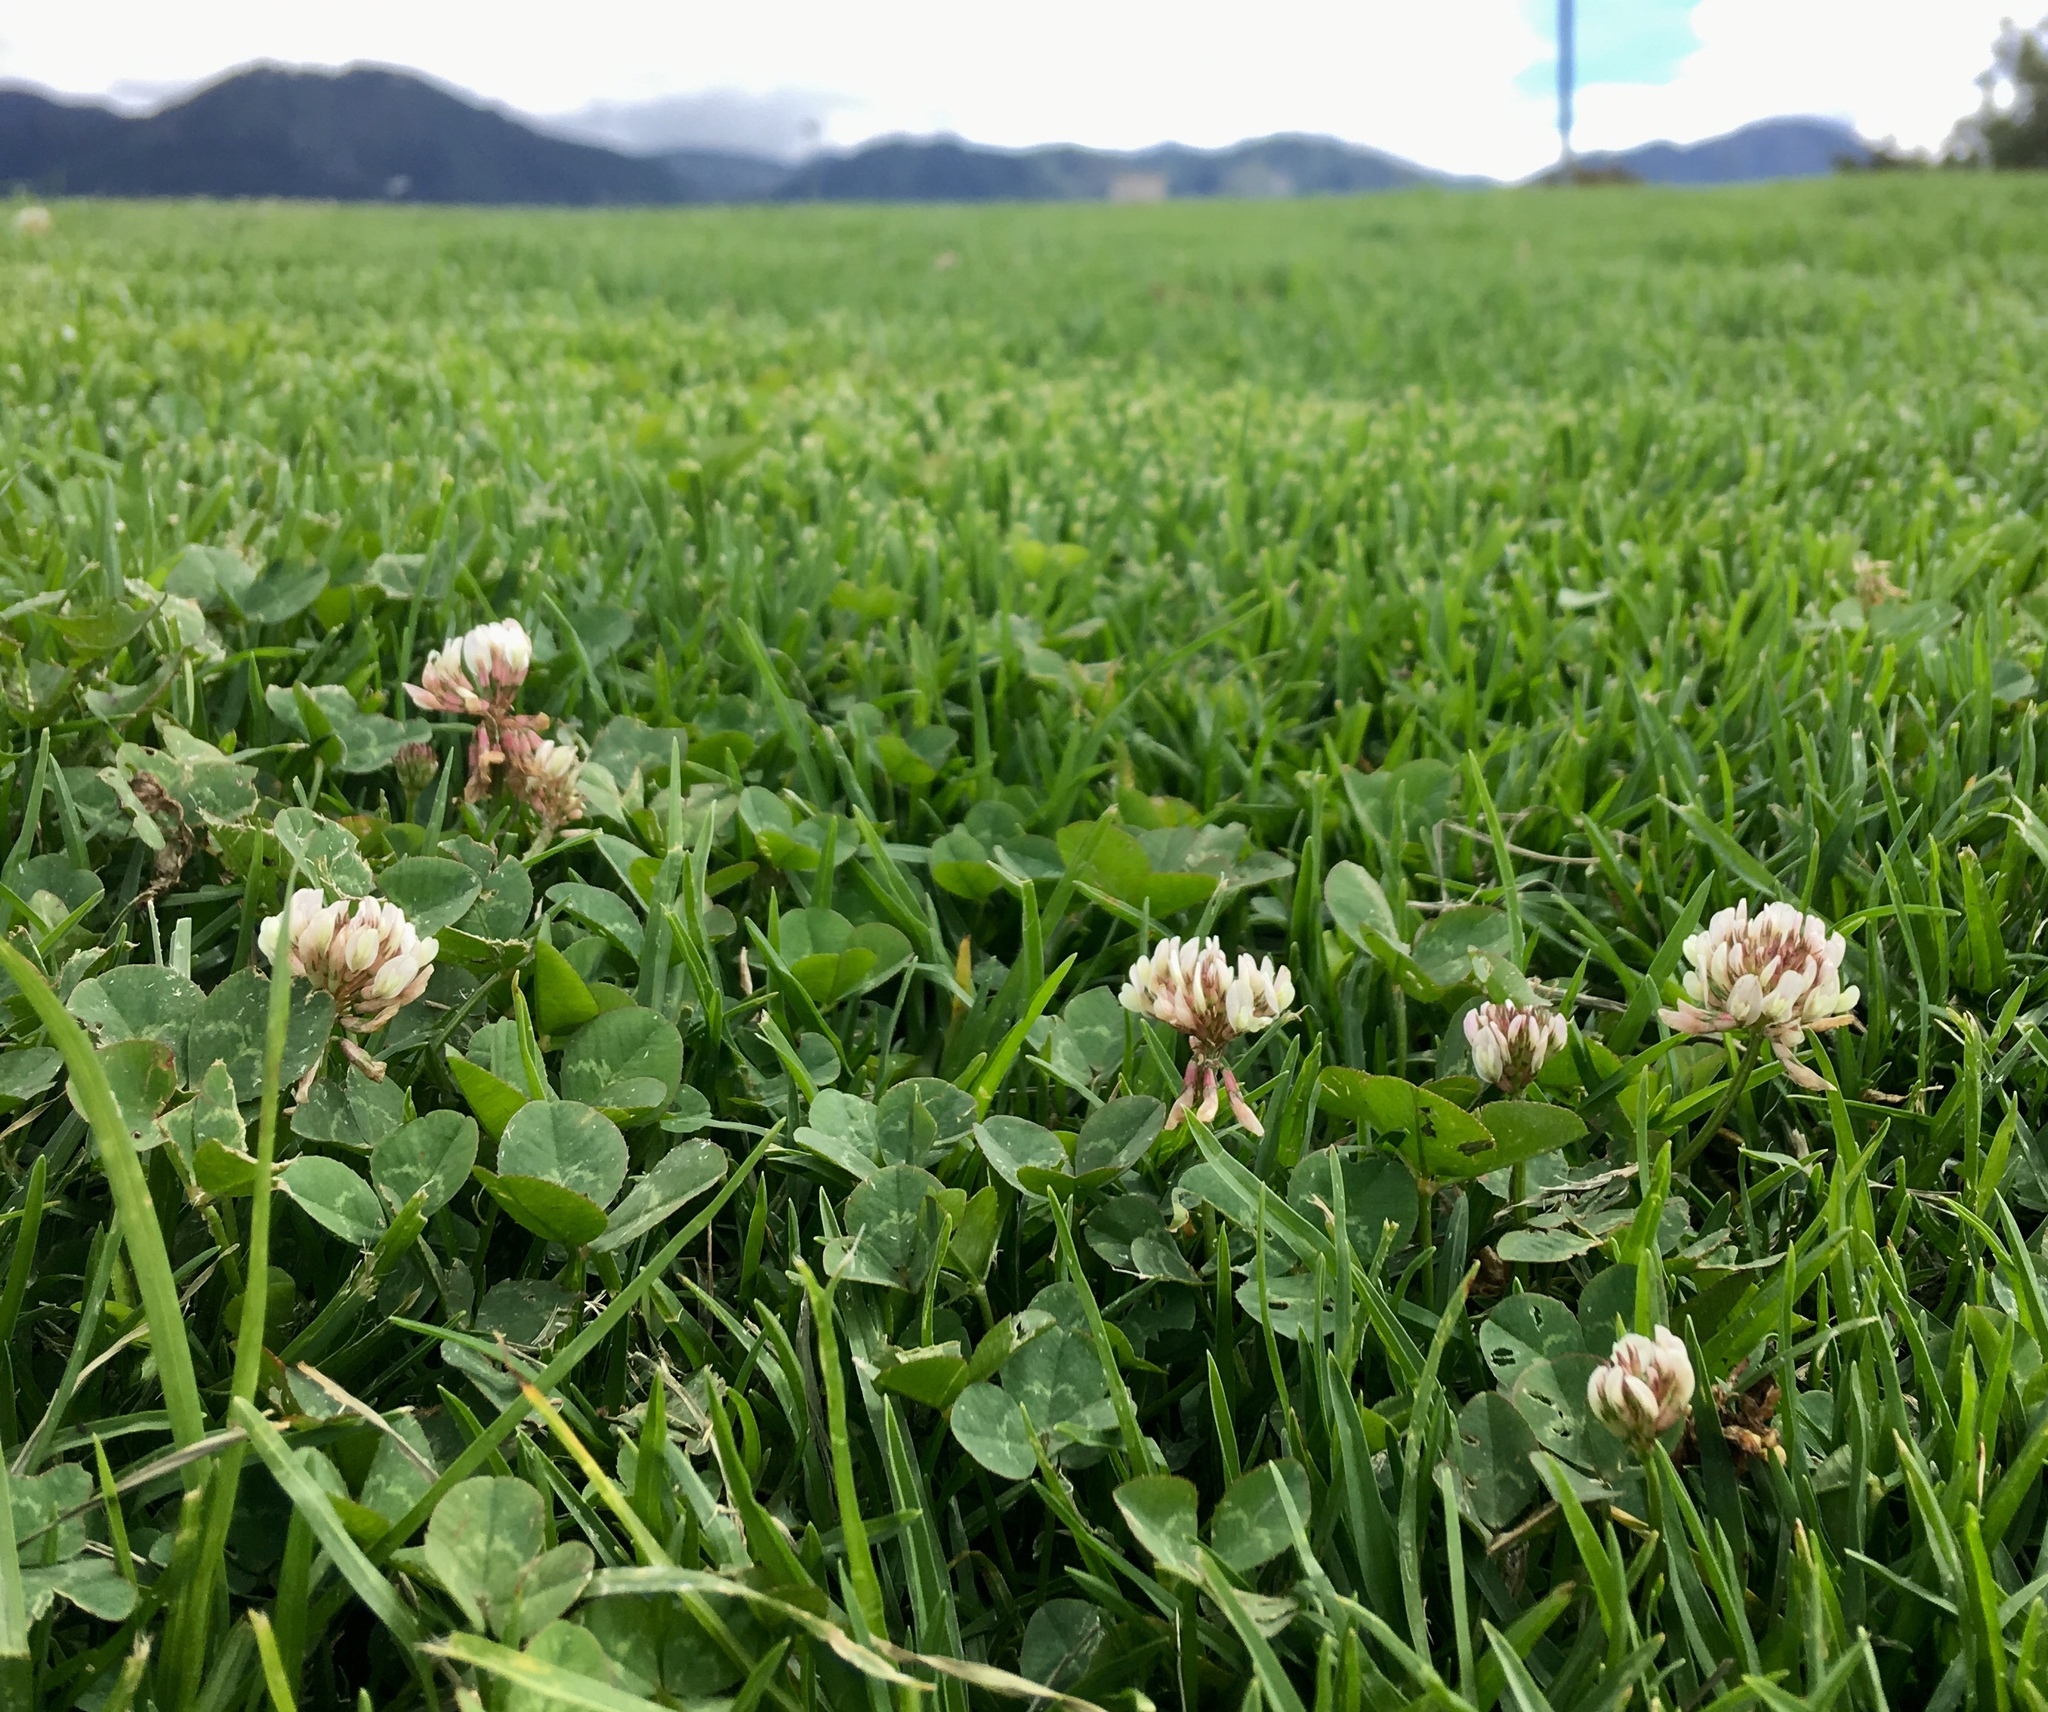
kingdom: Plantae
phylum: Tracheophyta
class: Magnoliopsida
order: Fabales
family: Fabaceae
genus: Trifolium
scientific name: Trifolium repens
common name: White clover
